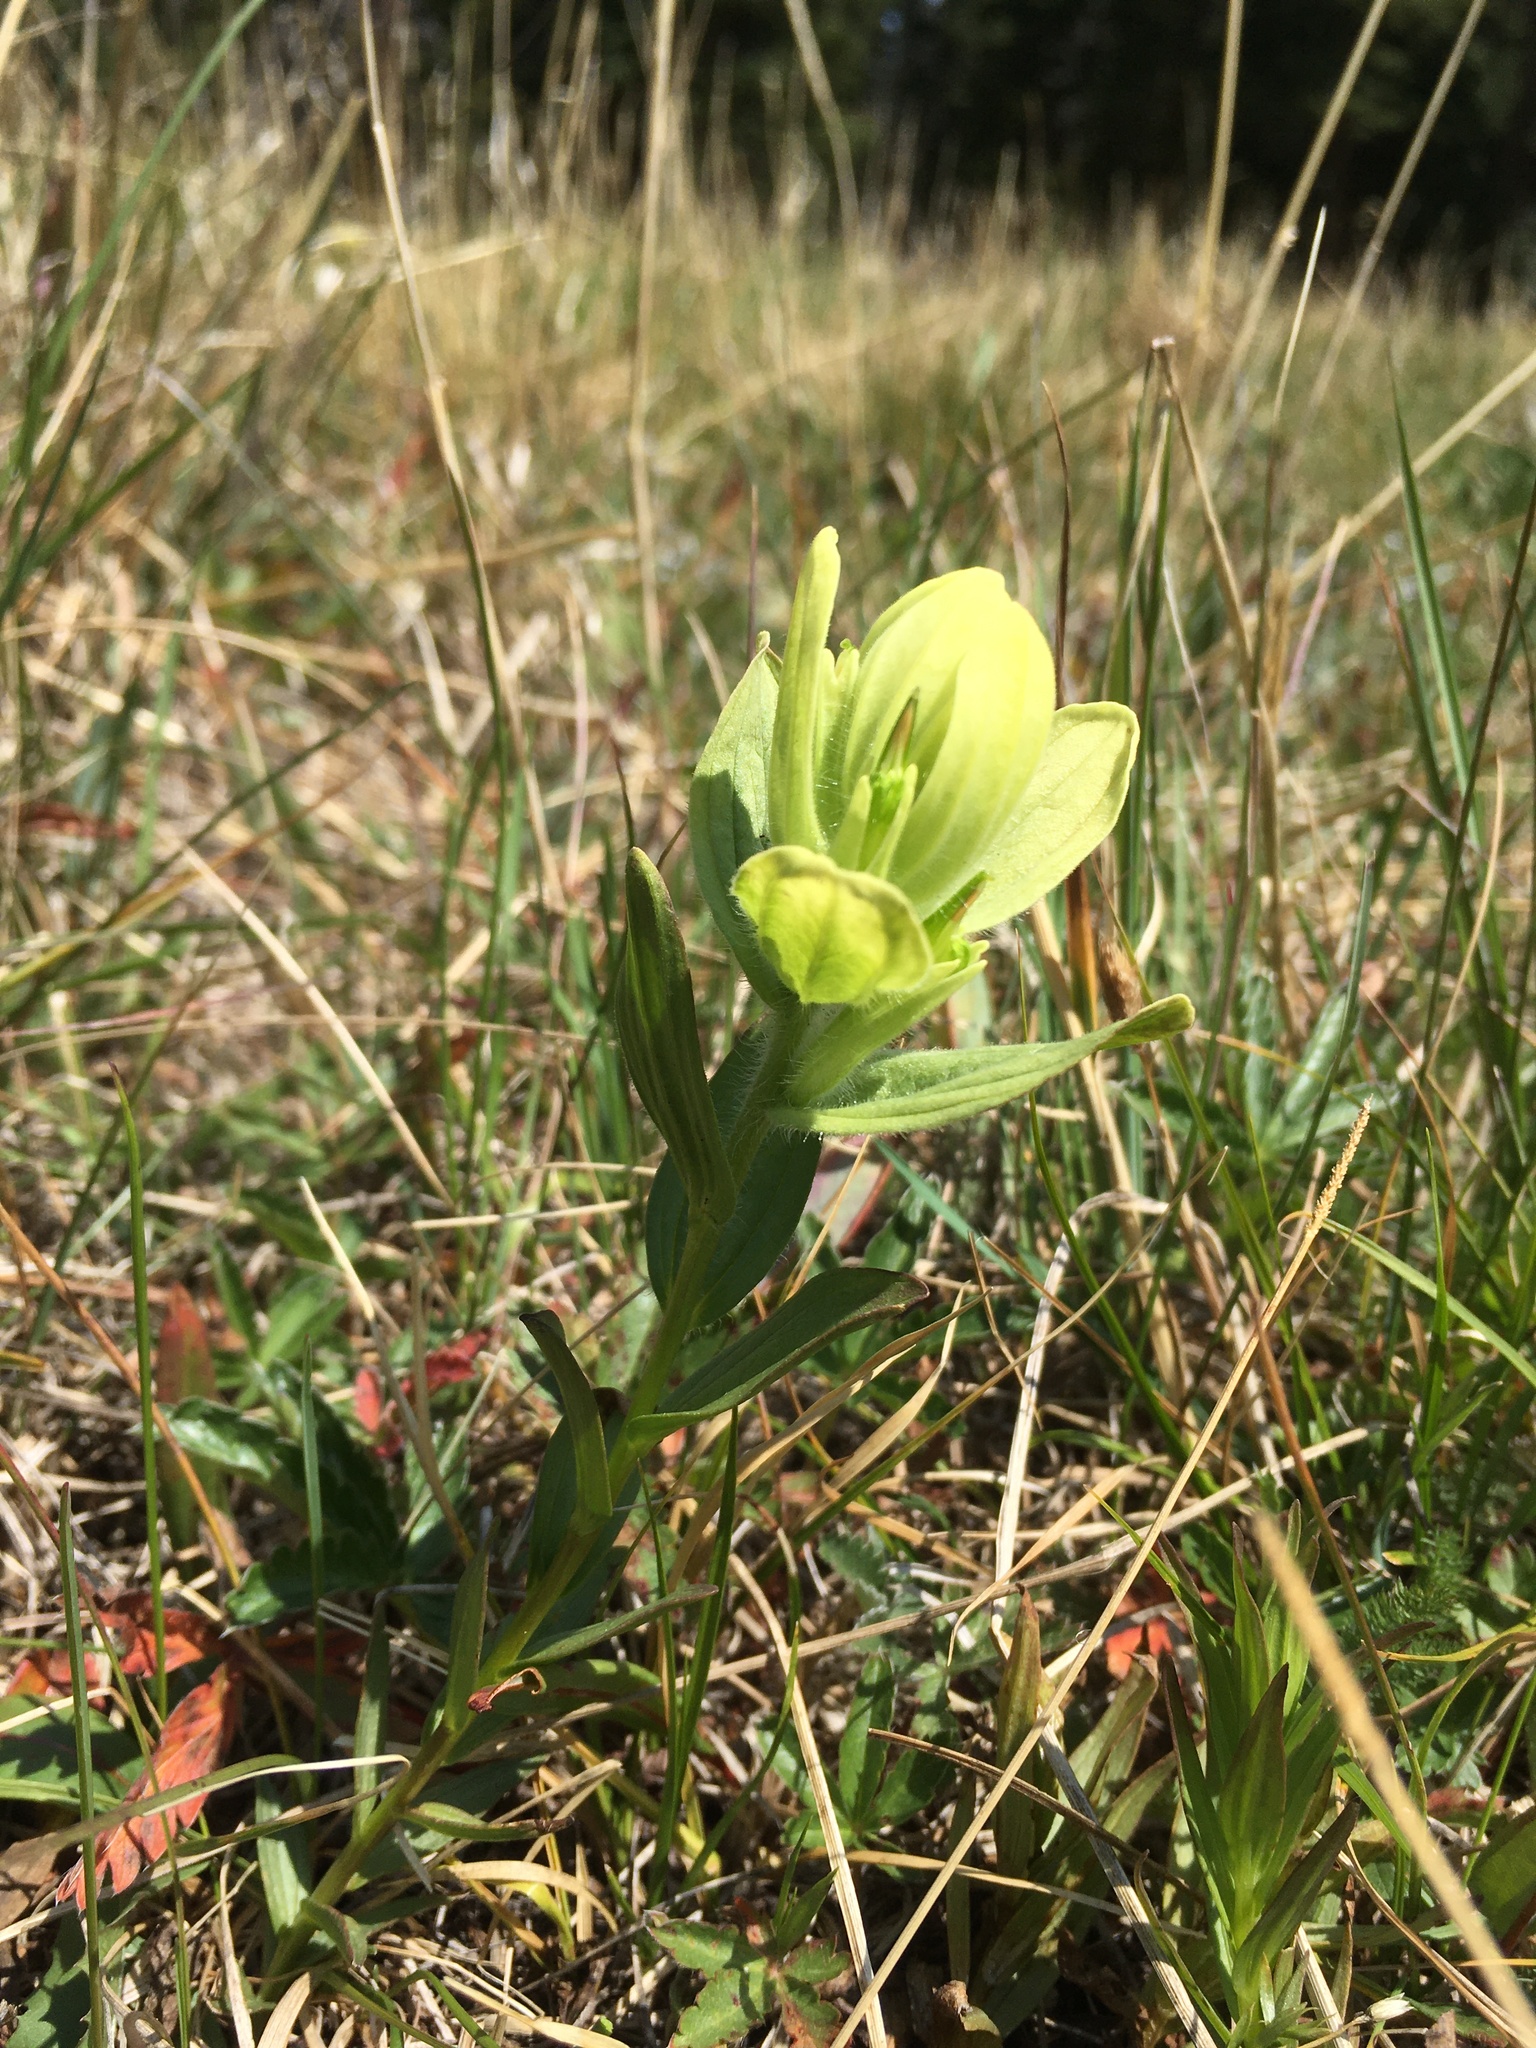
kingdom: Plantae
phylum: Tracheophyta
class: Magnoliopsida
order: Lamiales
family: Orobanchaceae
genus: Castilleja
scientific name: Castilleja septentrionalis
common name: Northeastern paintbrush
